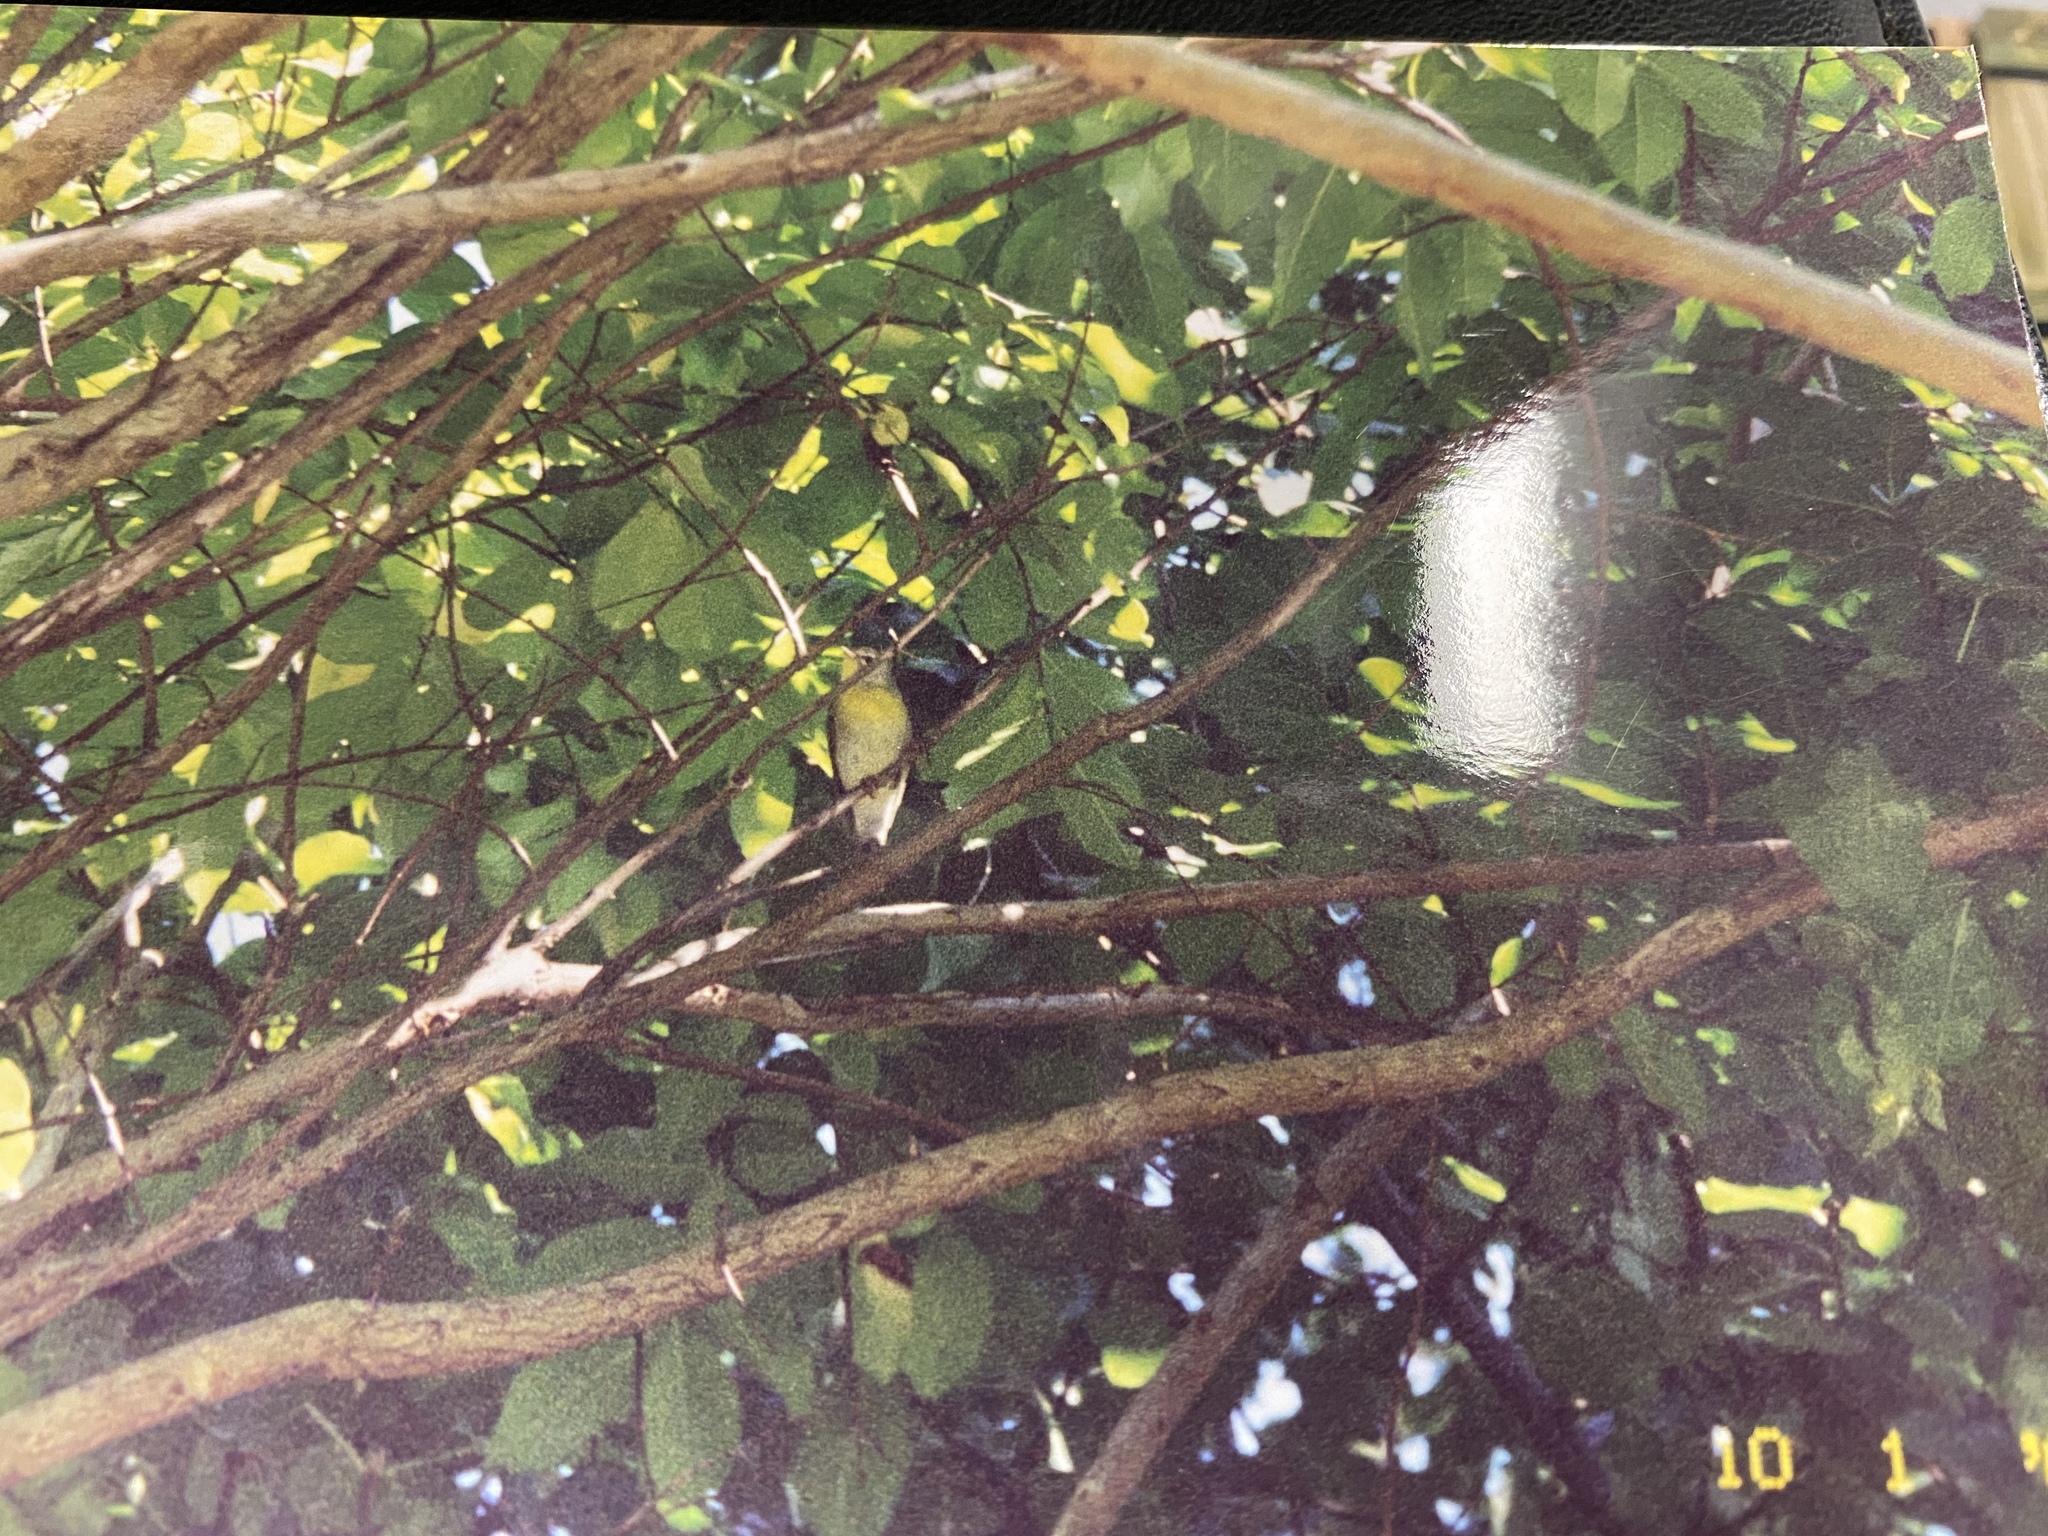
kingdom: Animalia
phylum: Chordata
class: Aves
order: Passeriformes
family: Parulidae
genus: Setophaga
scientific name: Setophaga americana
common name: Northern parula
